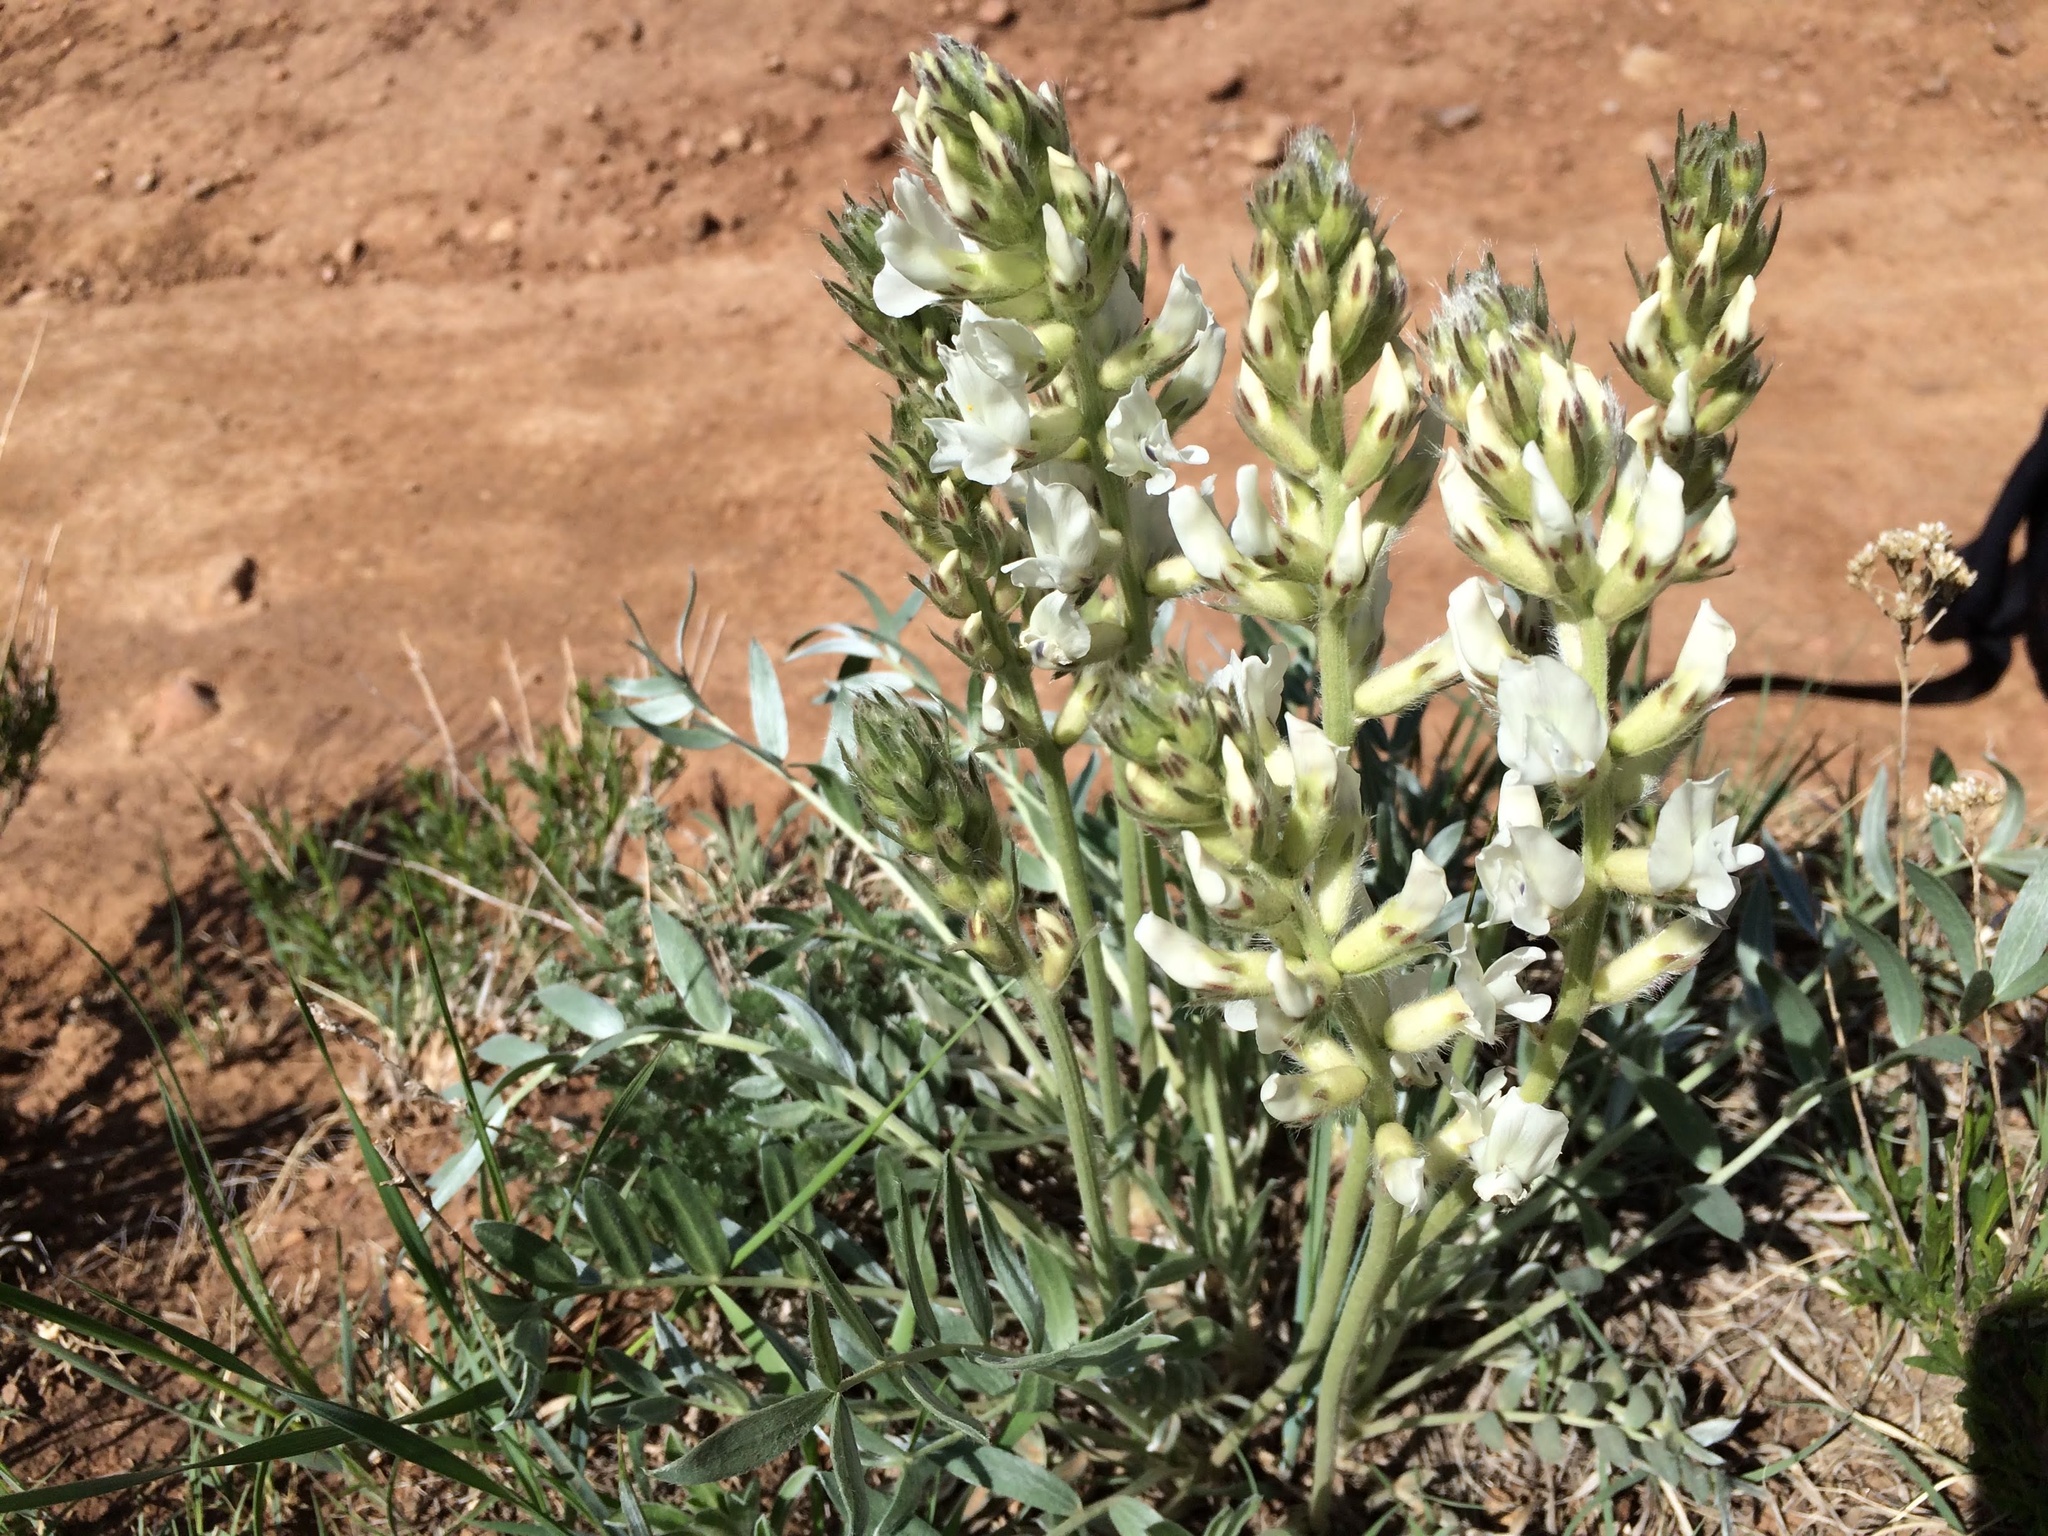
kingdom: Plantae
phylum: Tracheophyta
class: Magnoliopsida
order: Fabales
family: Fabaceae
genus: Oxytropis
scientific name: Oxytropis sericea
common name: Silky locoweed
